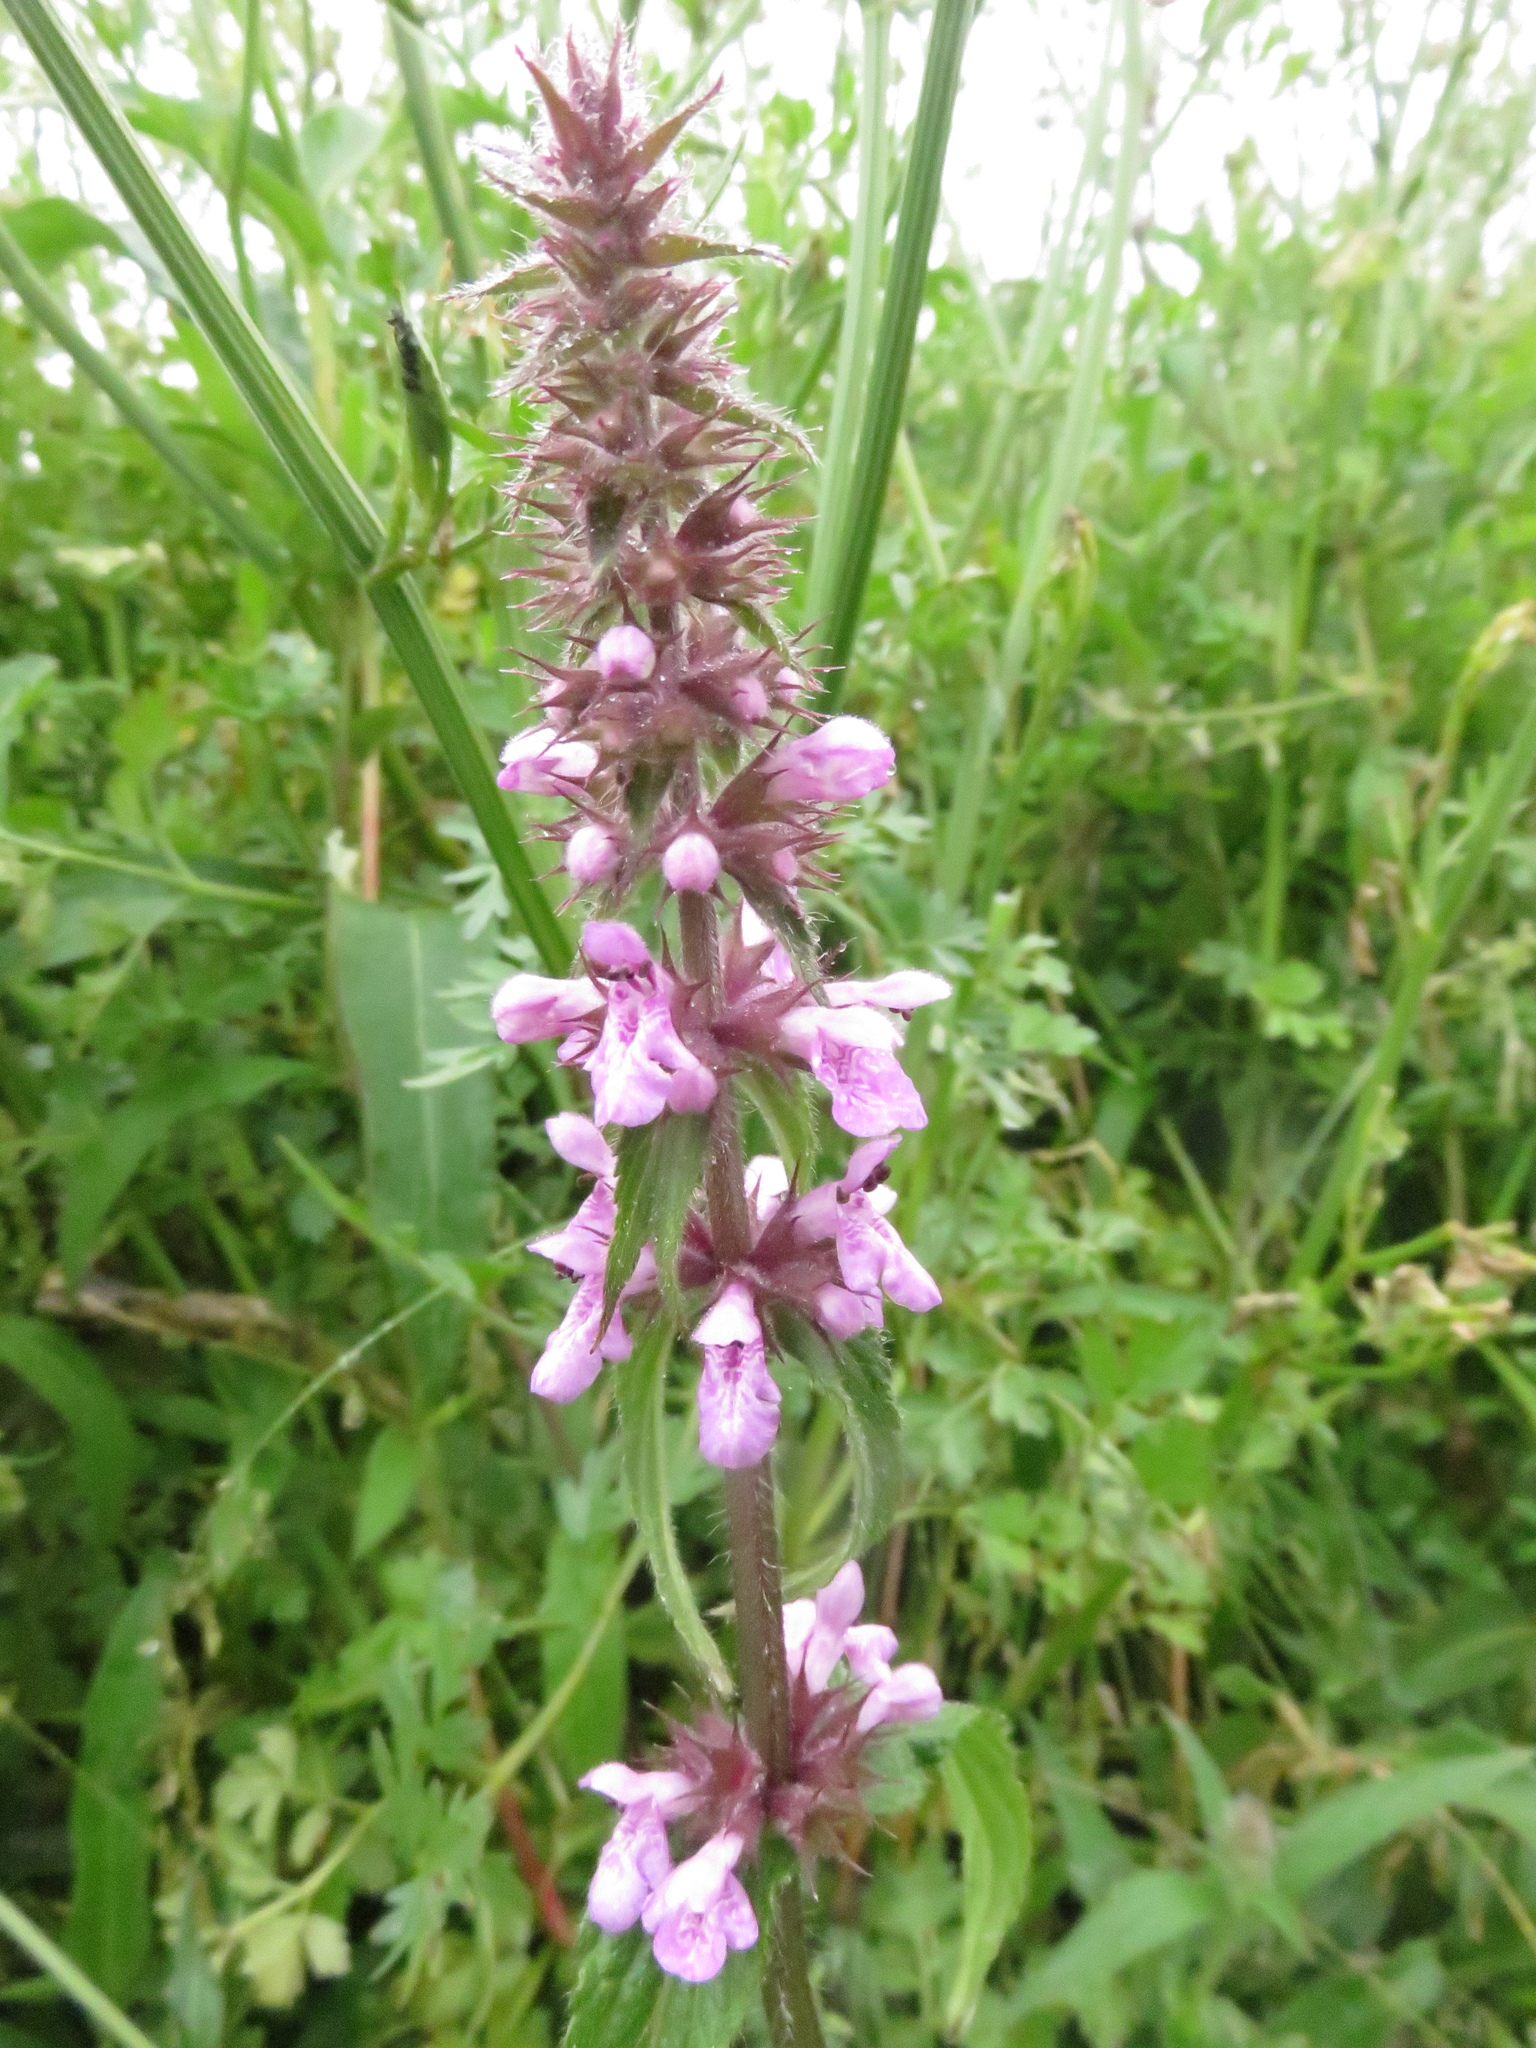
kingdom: Plantae
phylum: Tracheophyta
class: Magnoliopsida
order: Lamiales
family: Lamiaceae
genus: Stachys
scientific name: Stachys palustris
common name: Marsh woundwort
